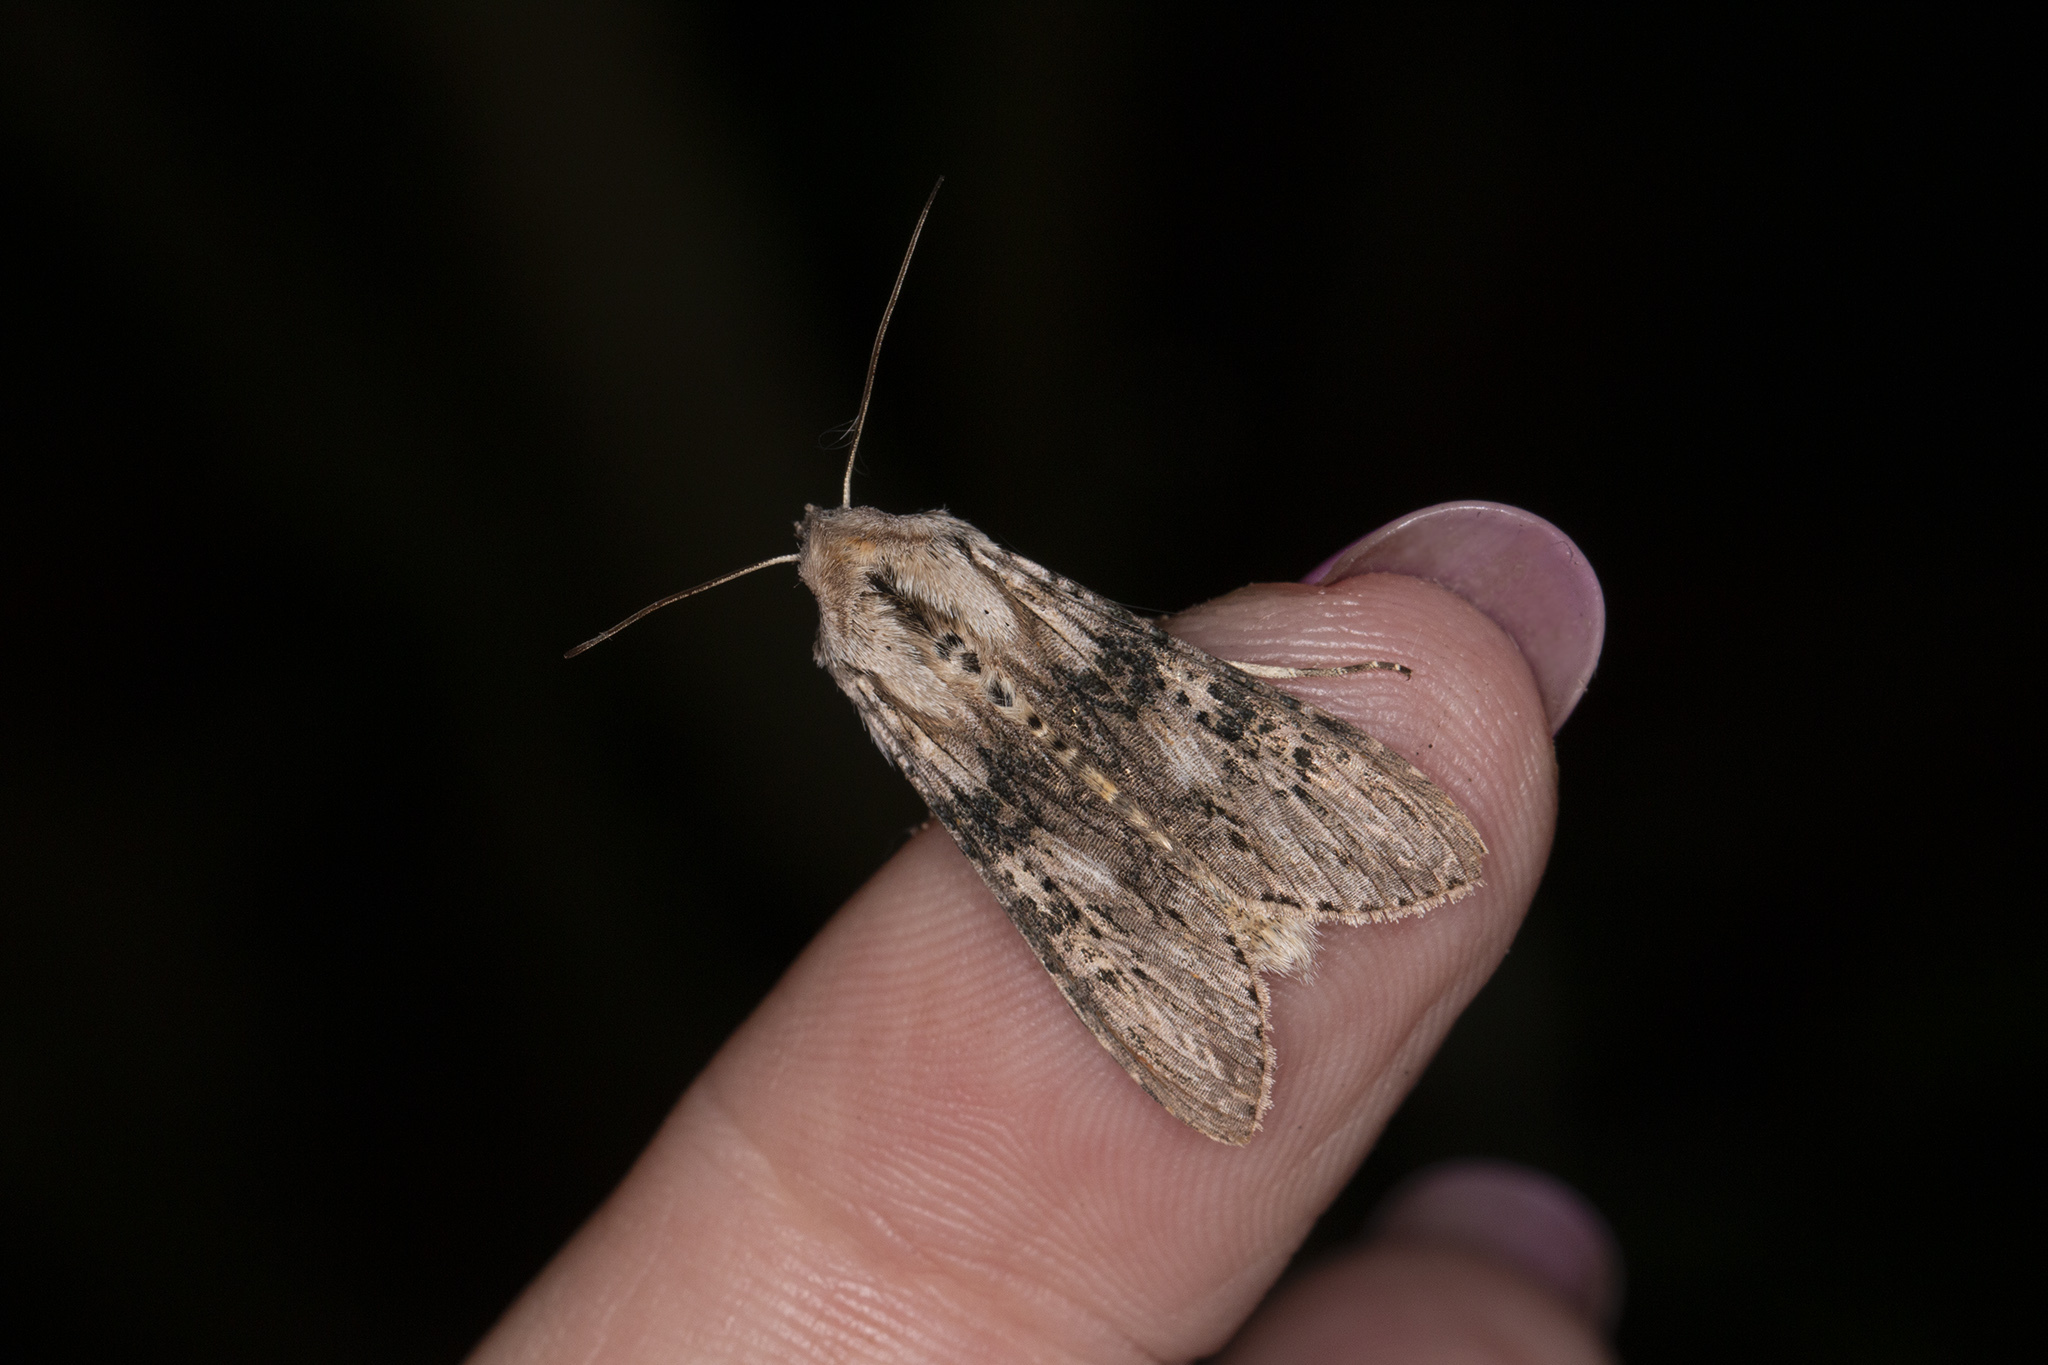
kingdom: Animalia
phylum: Arthropoda
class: Insecta
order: Lepidoptera
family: Noctuidae
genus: Cucullia
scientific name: Cucullia absinthii
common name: Wormwood
